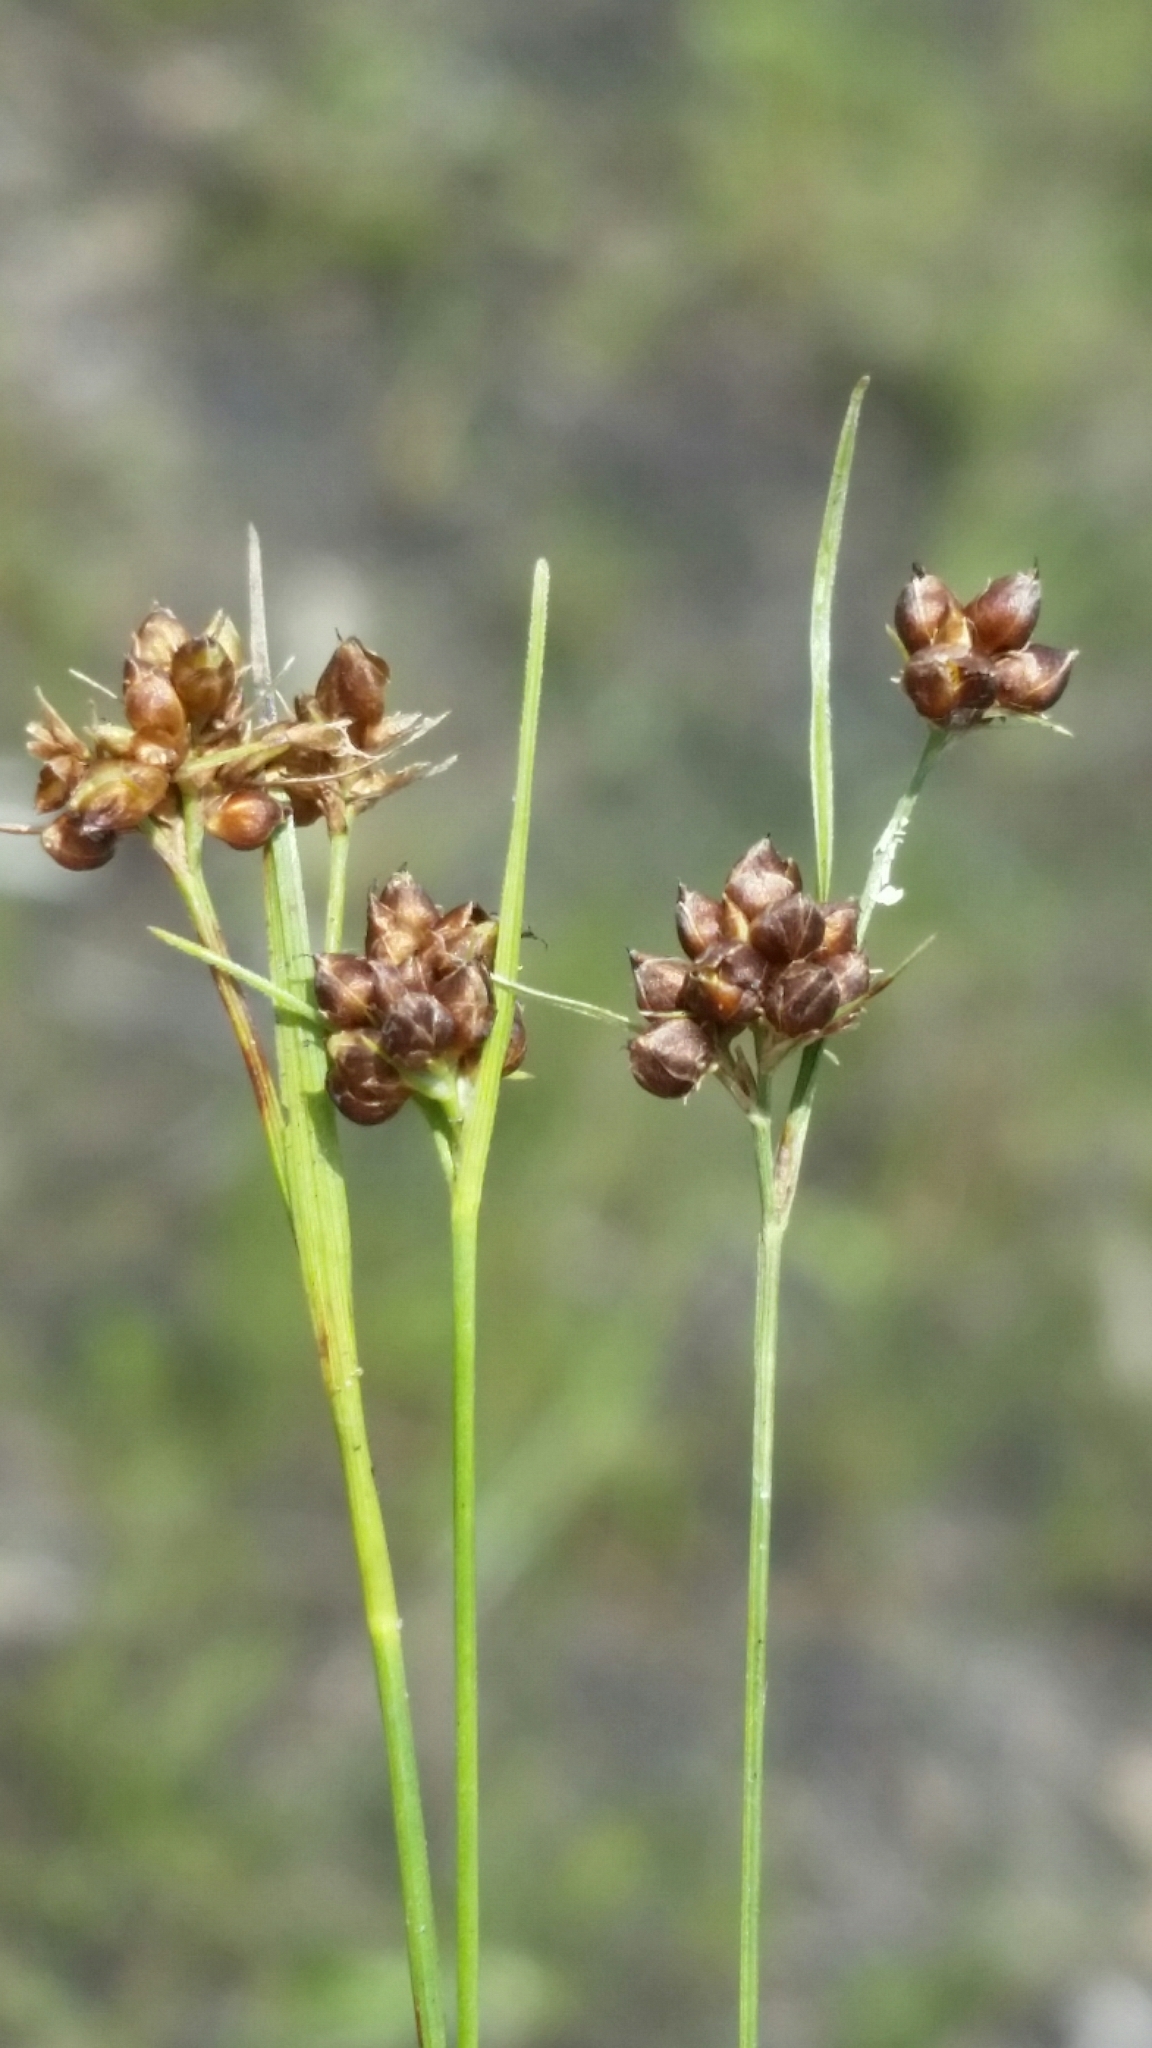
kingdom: Plantae
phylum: Tracheophyta
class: Liliopsida
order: Poales
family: Cyperaceae
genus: Rhynchospora
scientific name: Rhynchospora globularis
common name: Globe beaksedge
